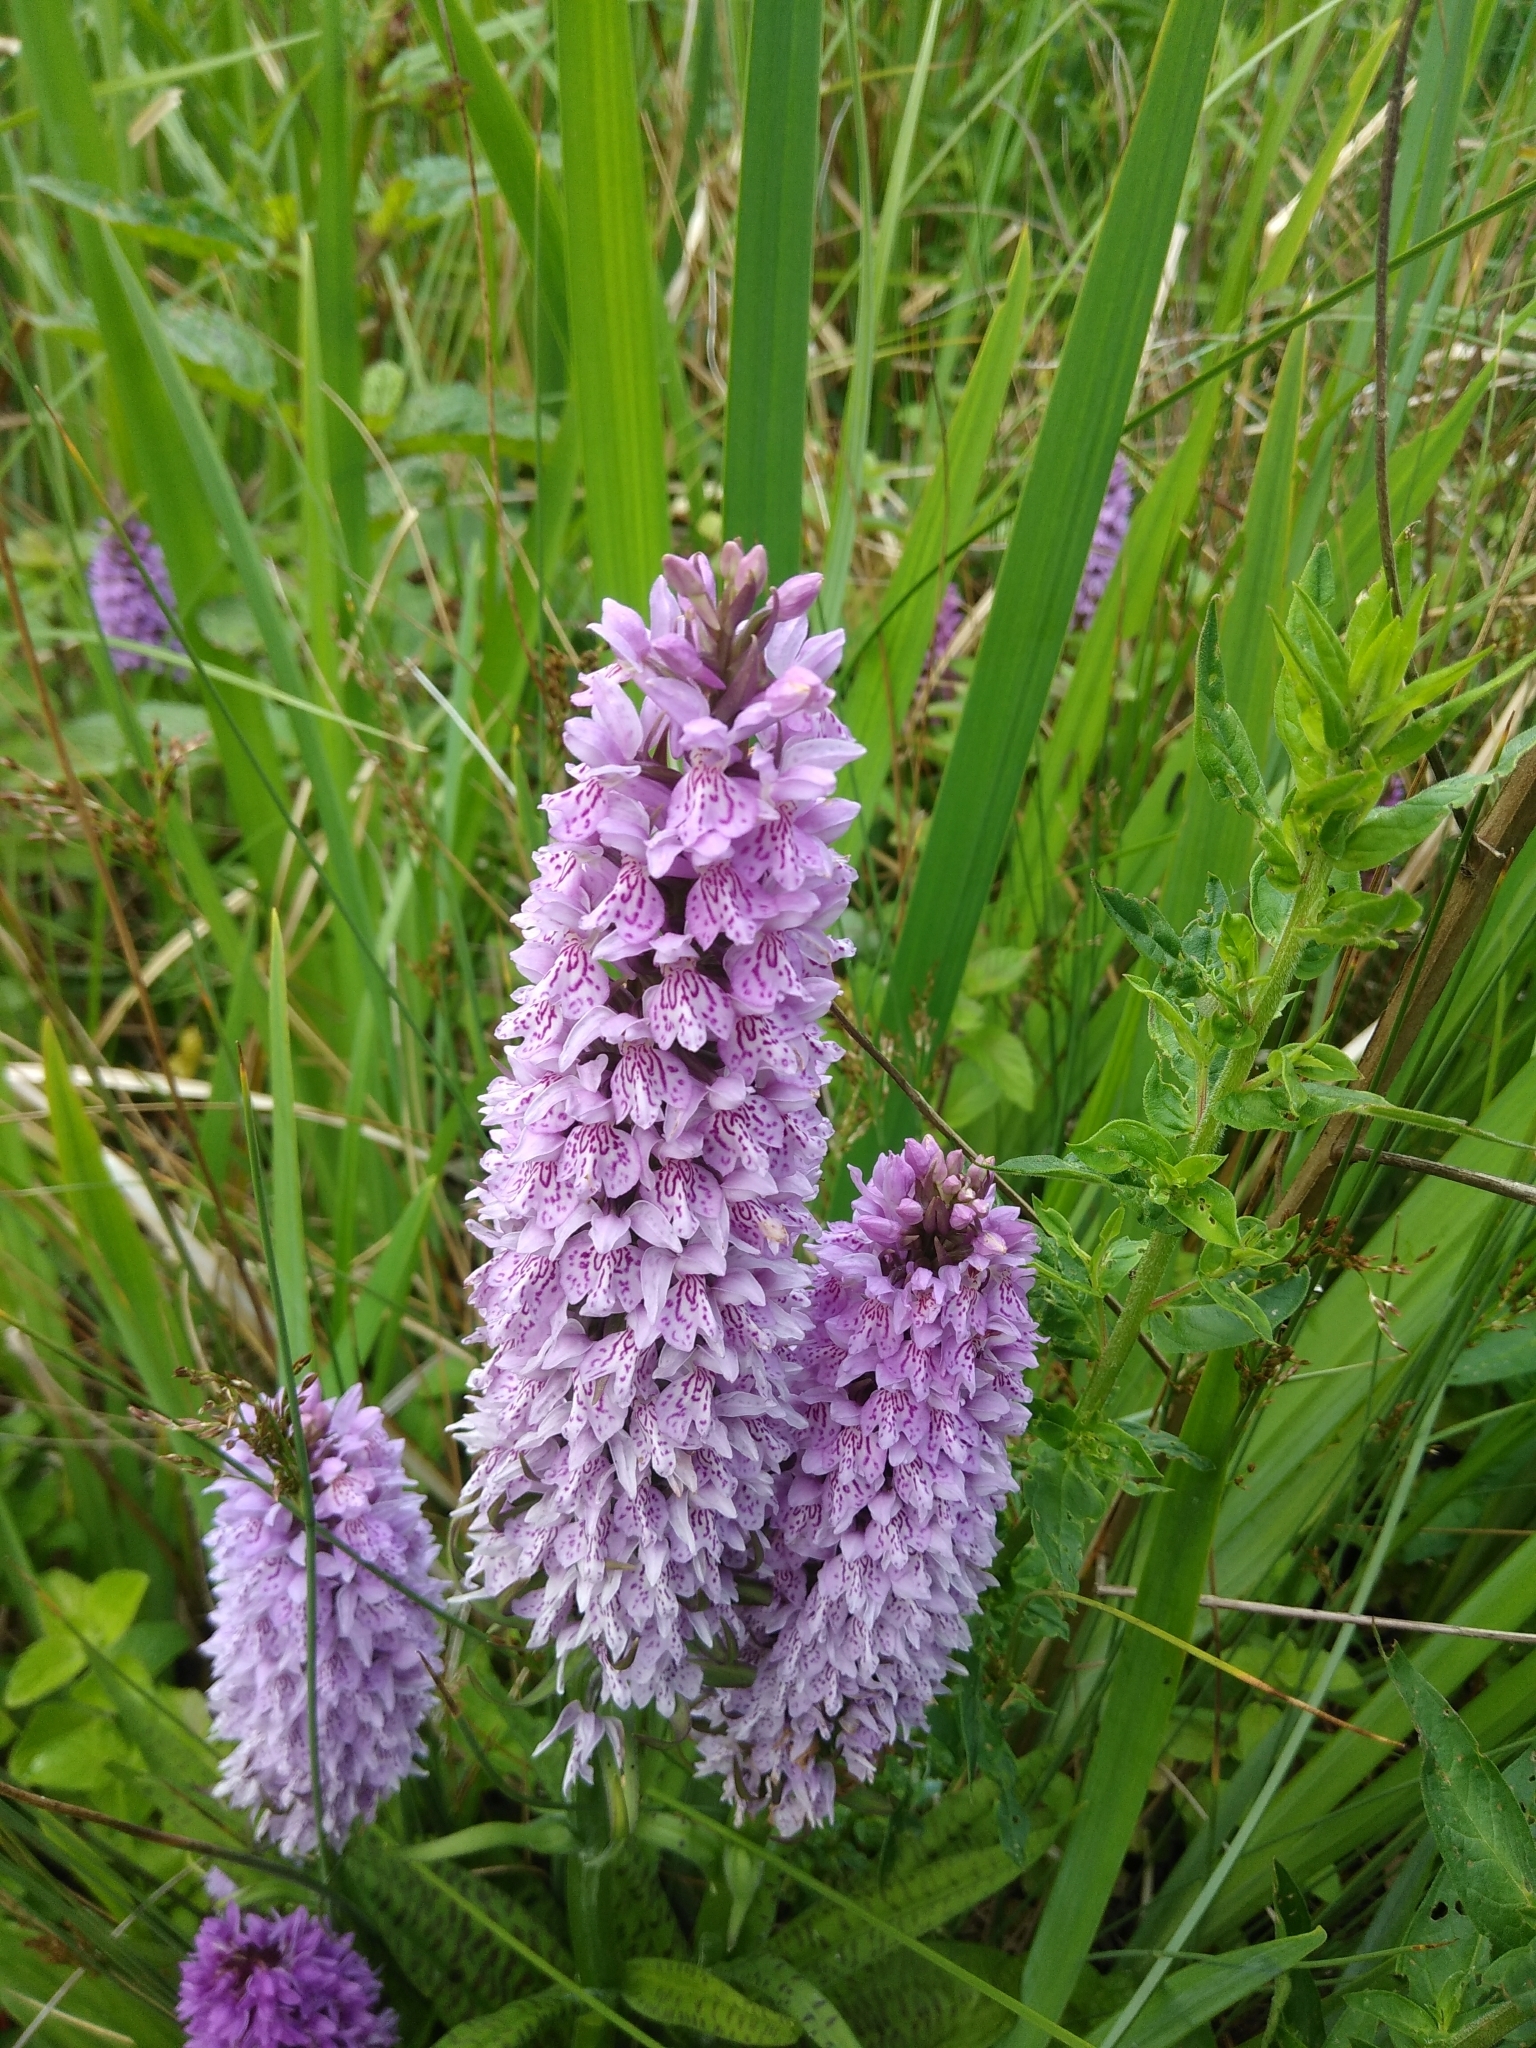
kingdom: Plantae
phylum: Tracheophyta
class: Liliopsida
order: Asparagales
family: Orchidaceae
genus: Dactylorhiza
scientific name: Dactylorhiza maculata
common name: Heath spotted-orchid
